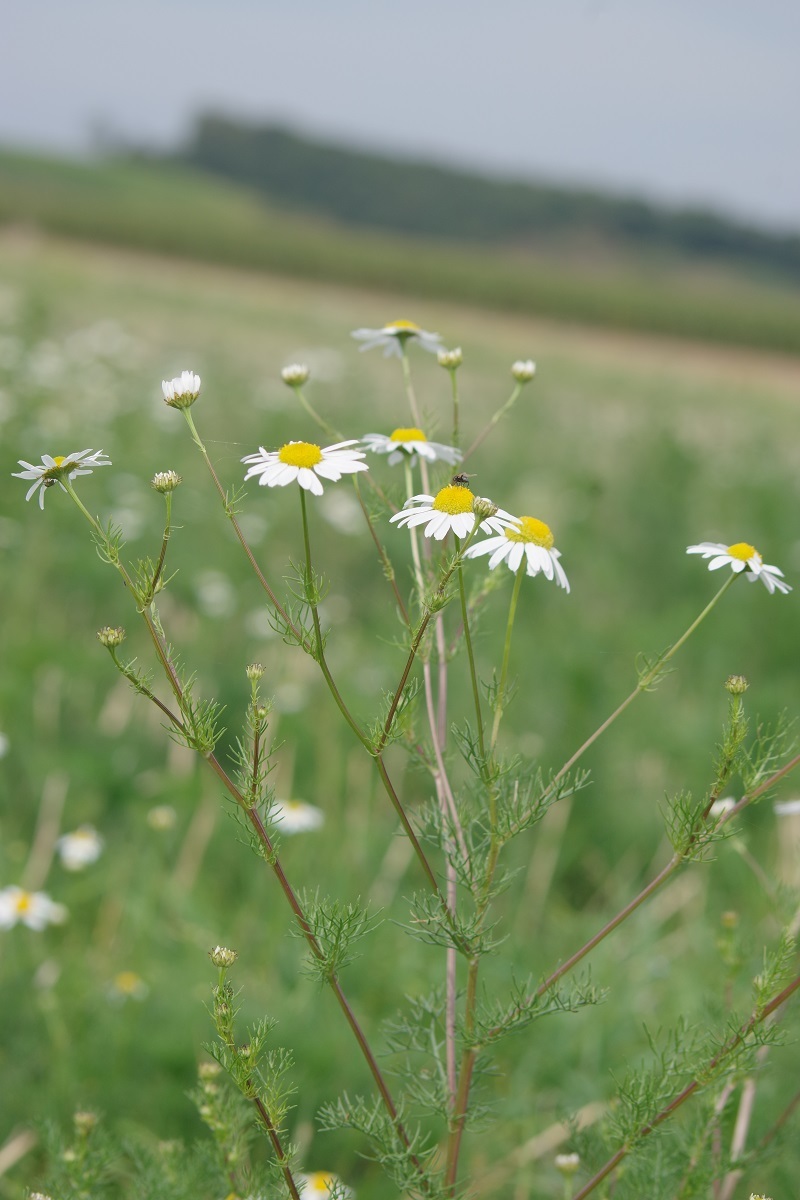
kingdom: Plantae
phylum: Tracheophyta
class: Magnoliopsida
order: Asterales
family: Asteraceae
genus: Tripleurospermum
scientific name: Tripleurospermum inodorum
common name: Scentless mayweed
